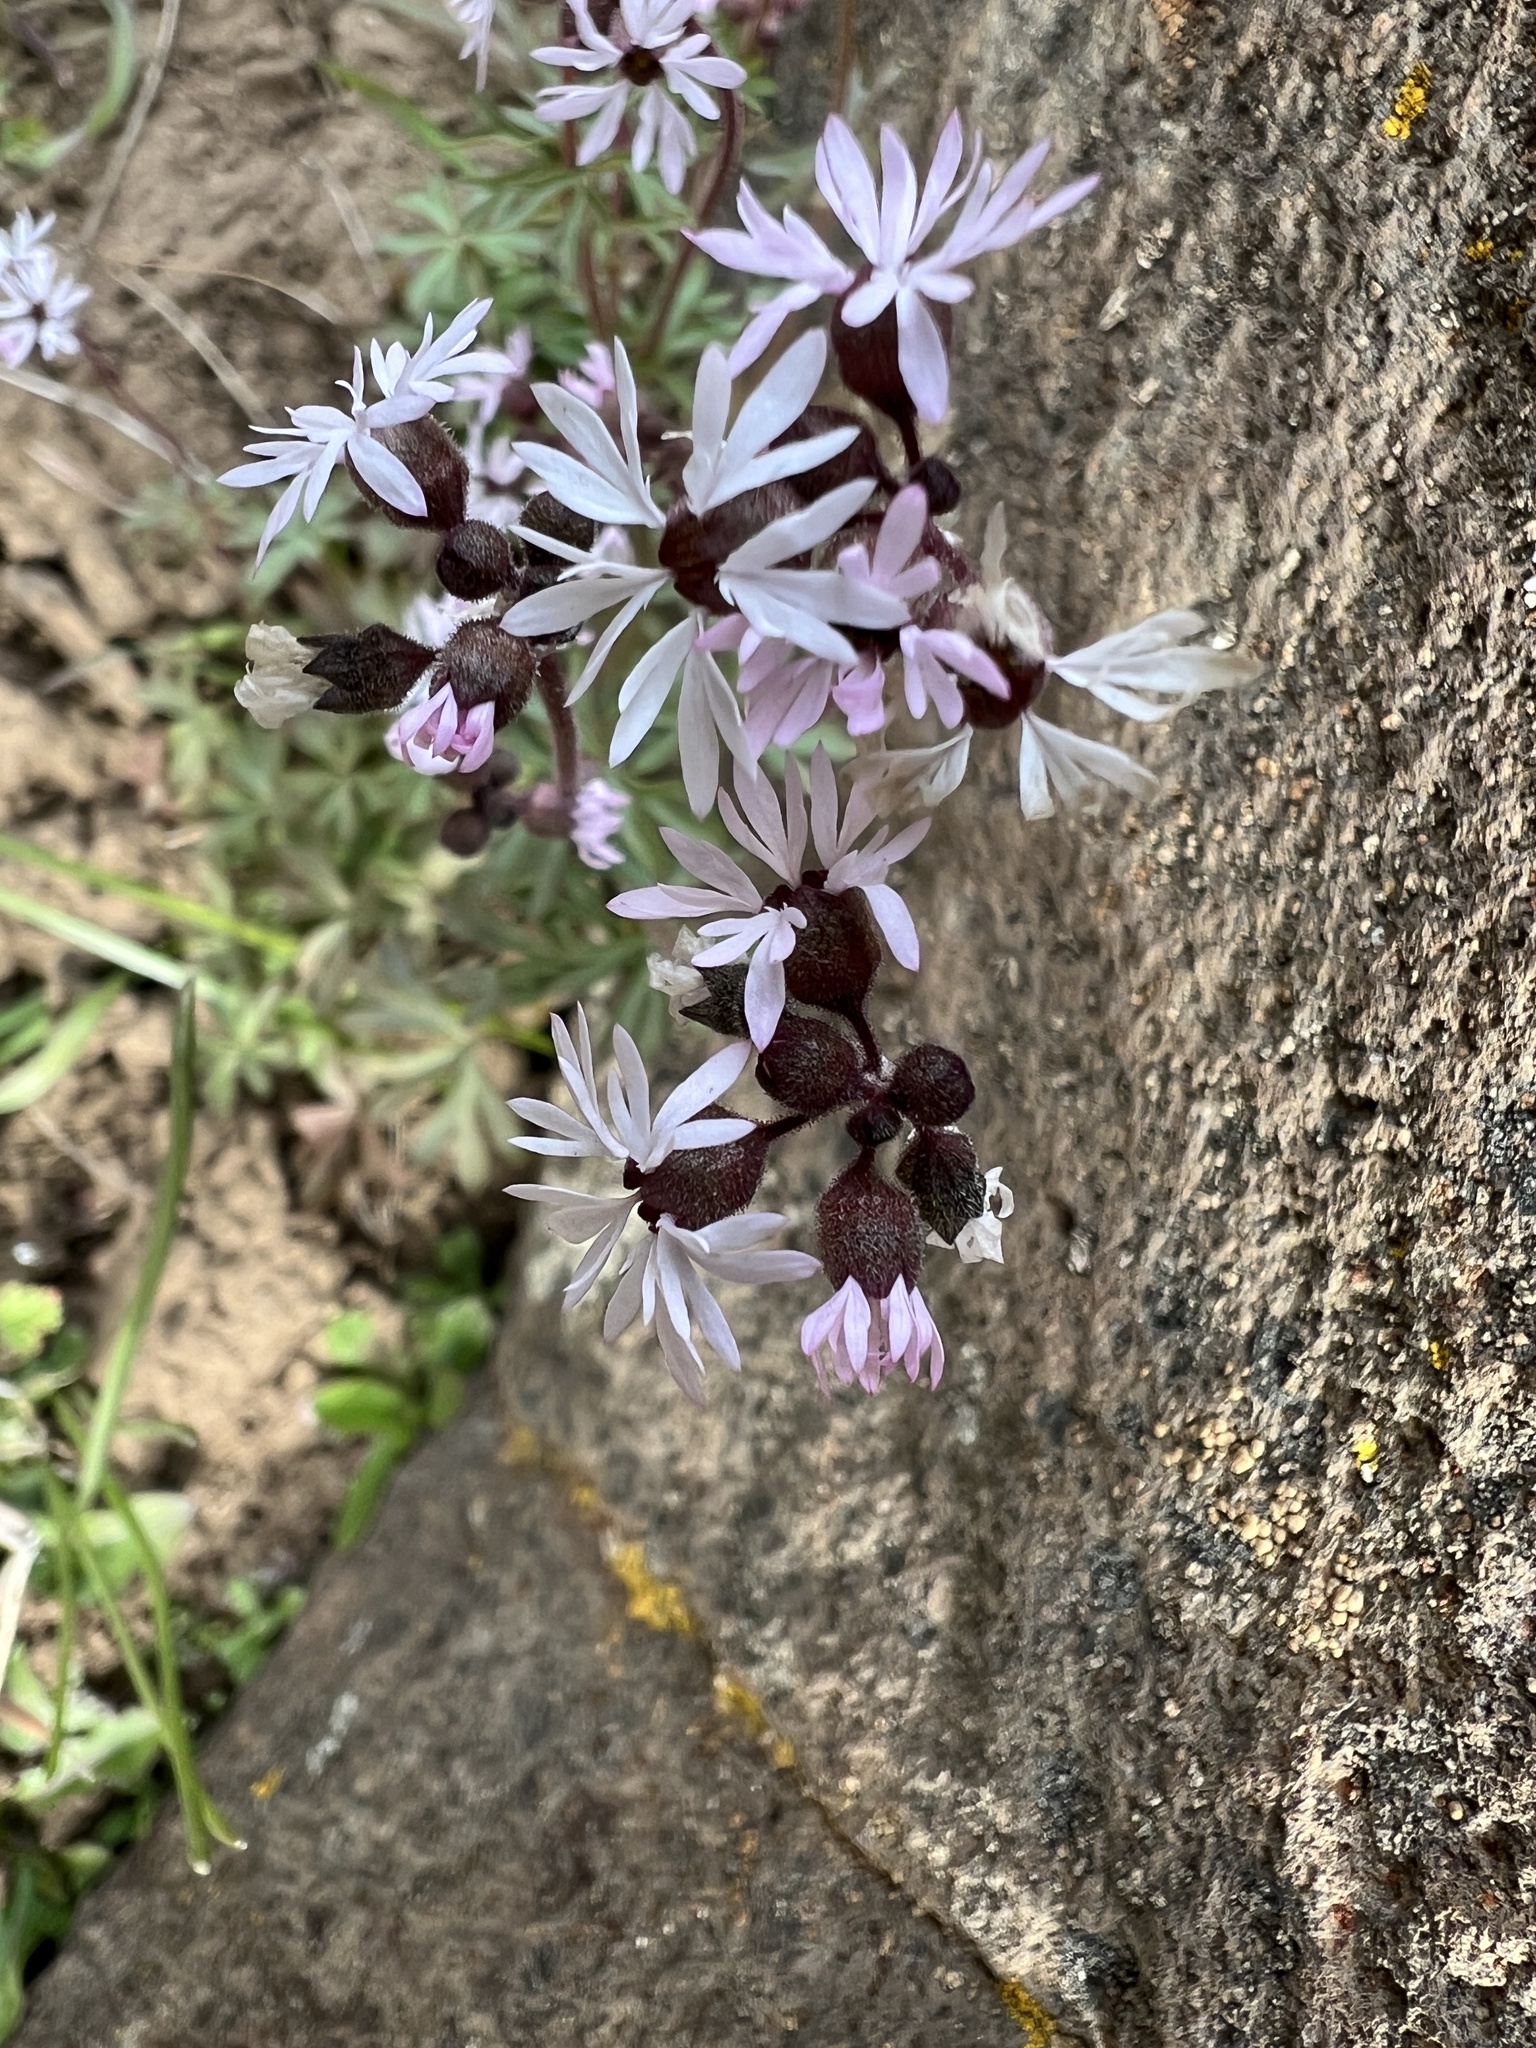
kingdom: Plantae
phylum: Tracheophyta
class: Magnoliopsida
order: Saxifragales
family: Saxifragaceae
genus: Lithophragma
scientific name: Lithophragma glabrum
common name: Bulbous prairie-star
